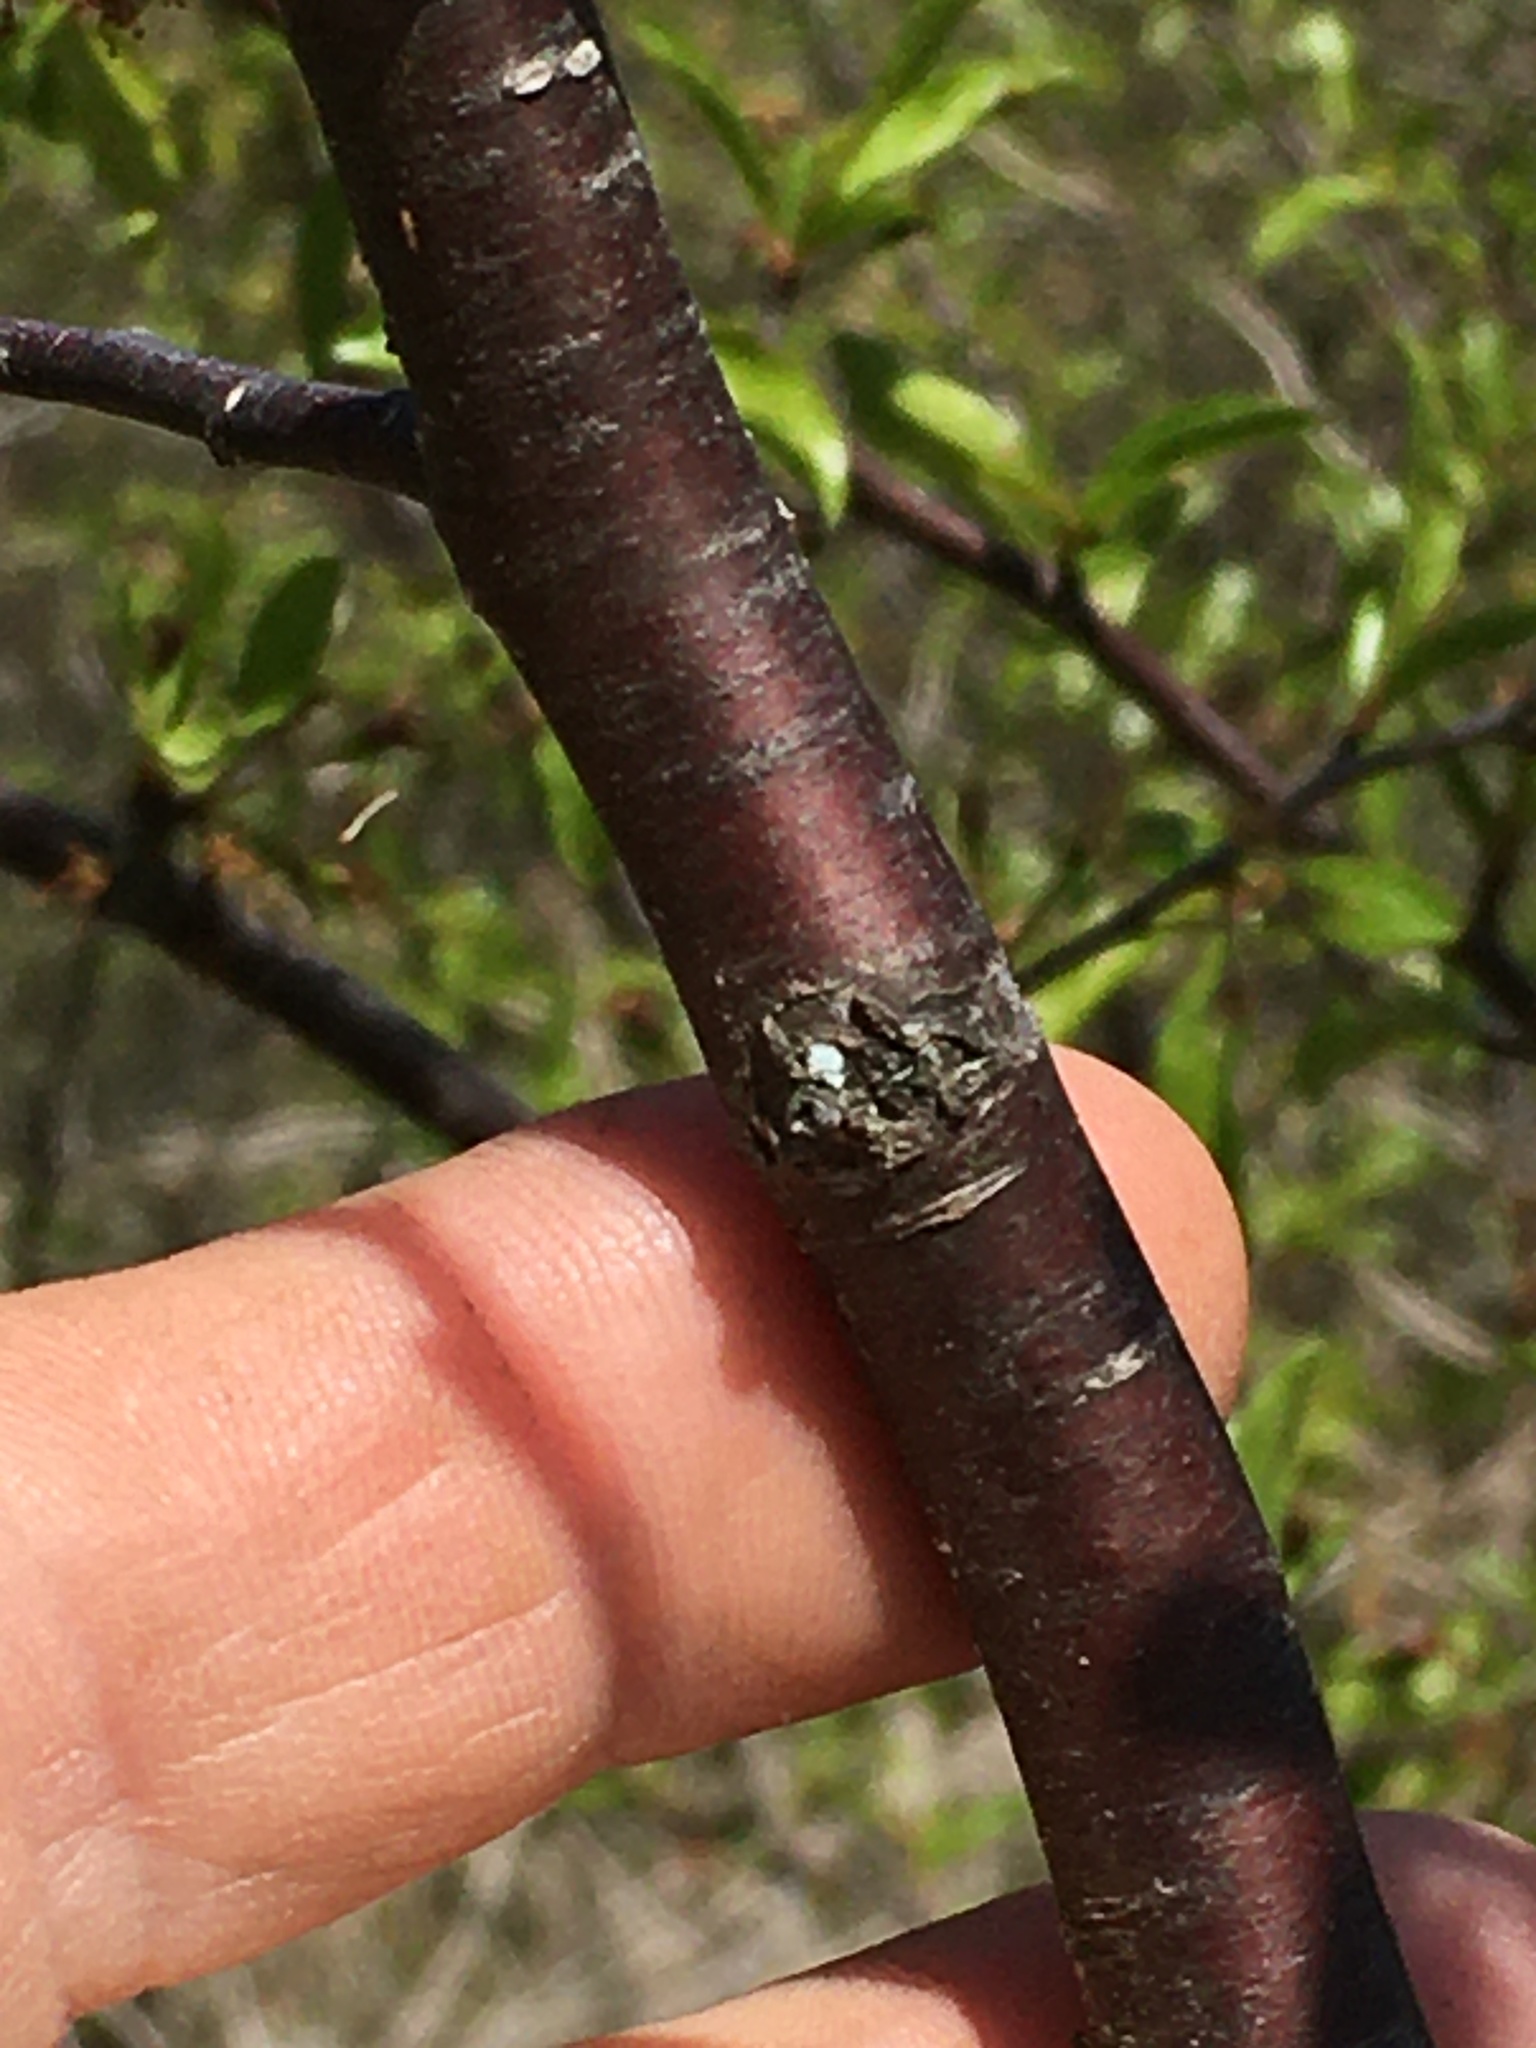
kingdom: Plantae
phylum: Tracheophyta
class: Magnoliopsida
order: Rosales
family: Rosaceae
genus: Prunus
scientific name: Prunus angustifolia
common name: Cherokee plum
